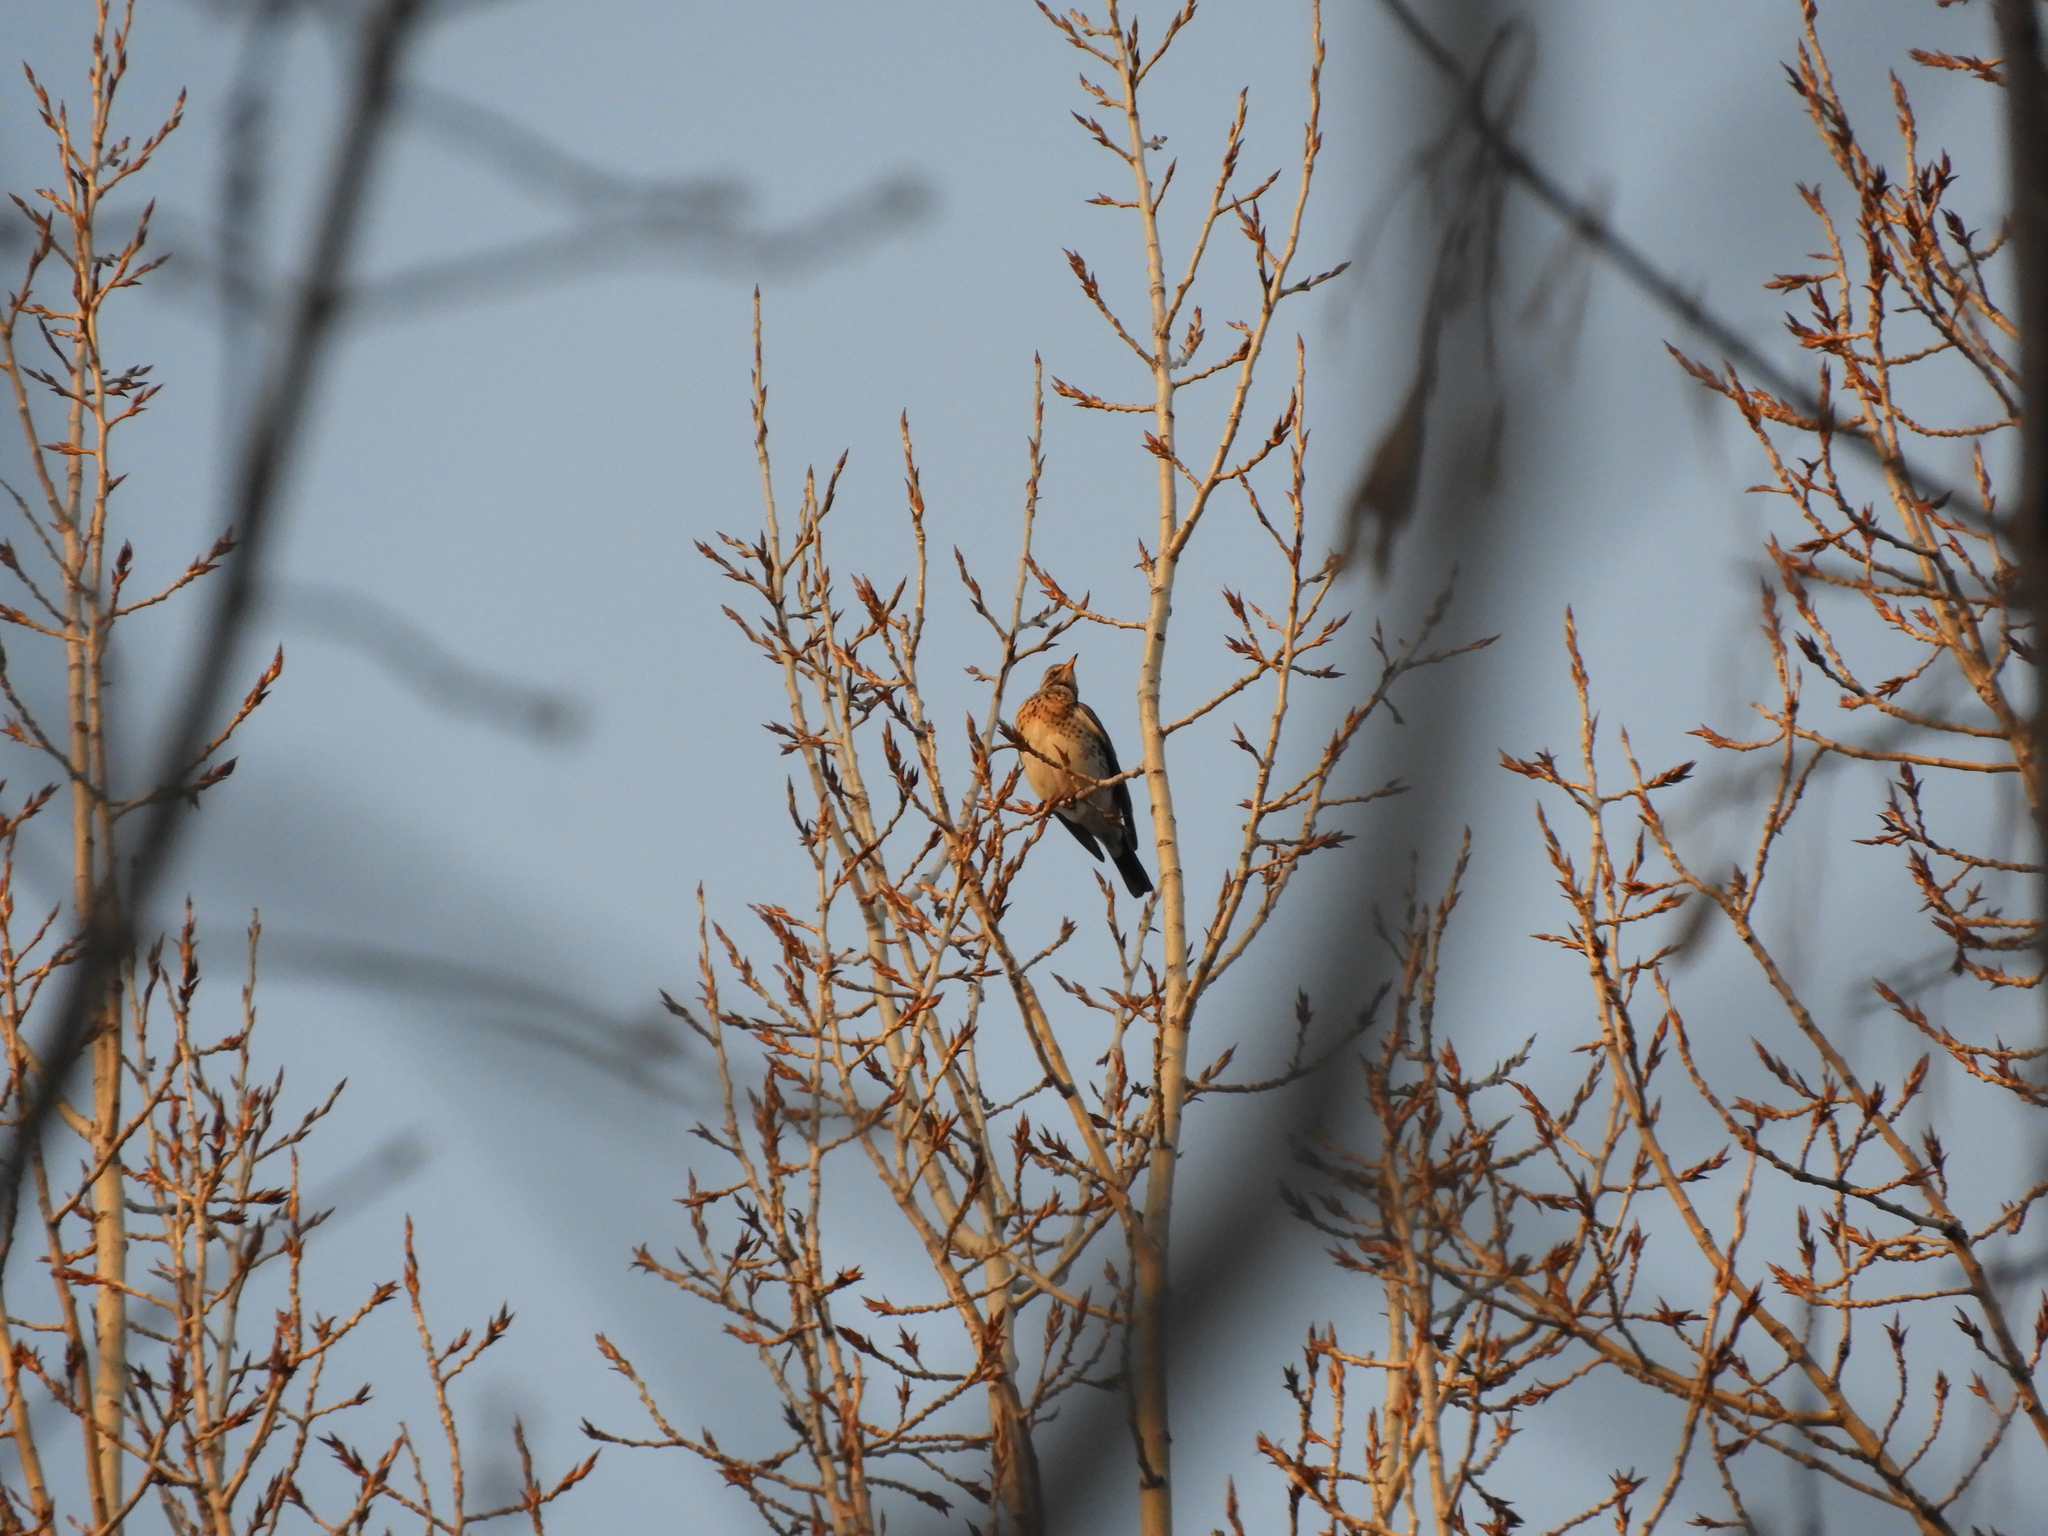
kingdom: Animalia
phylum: Chordata
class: Aves
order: Passeriformes
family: Turdidae
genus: Turdus
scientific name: Turdus pilaris
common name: Fieldfare
